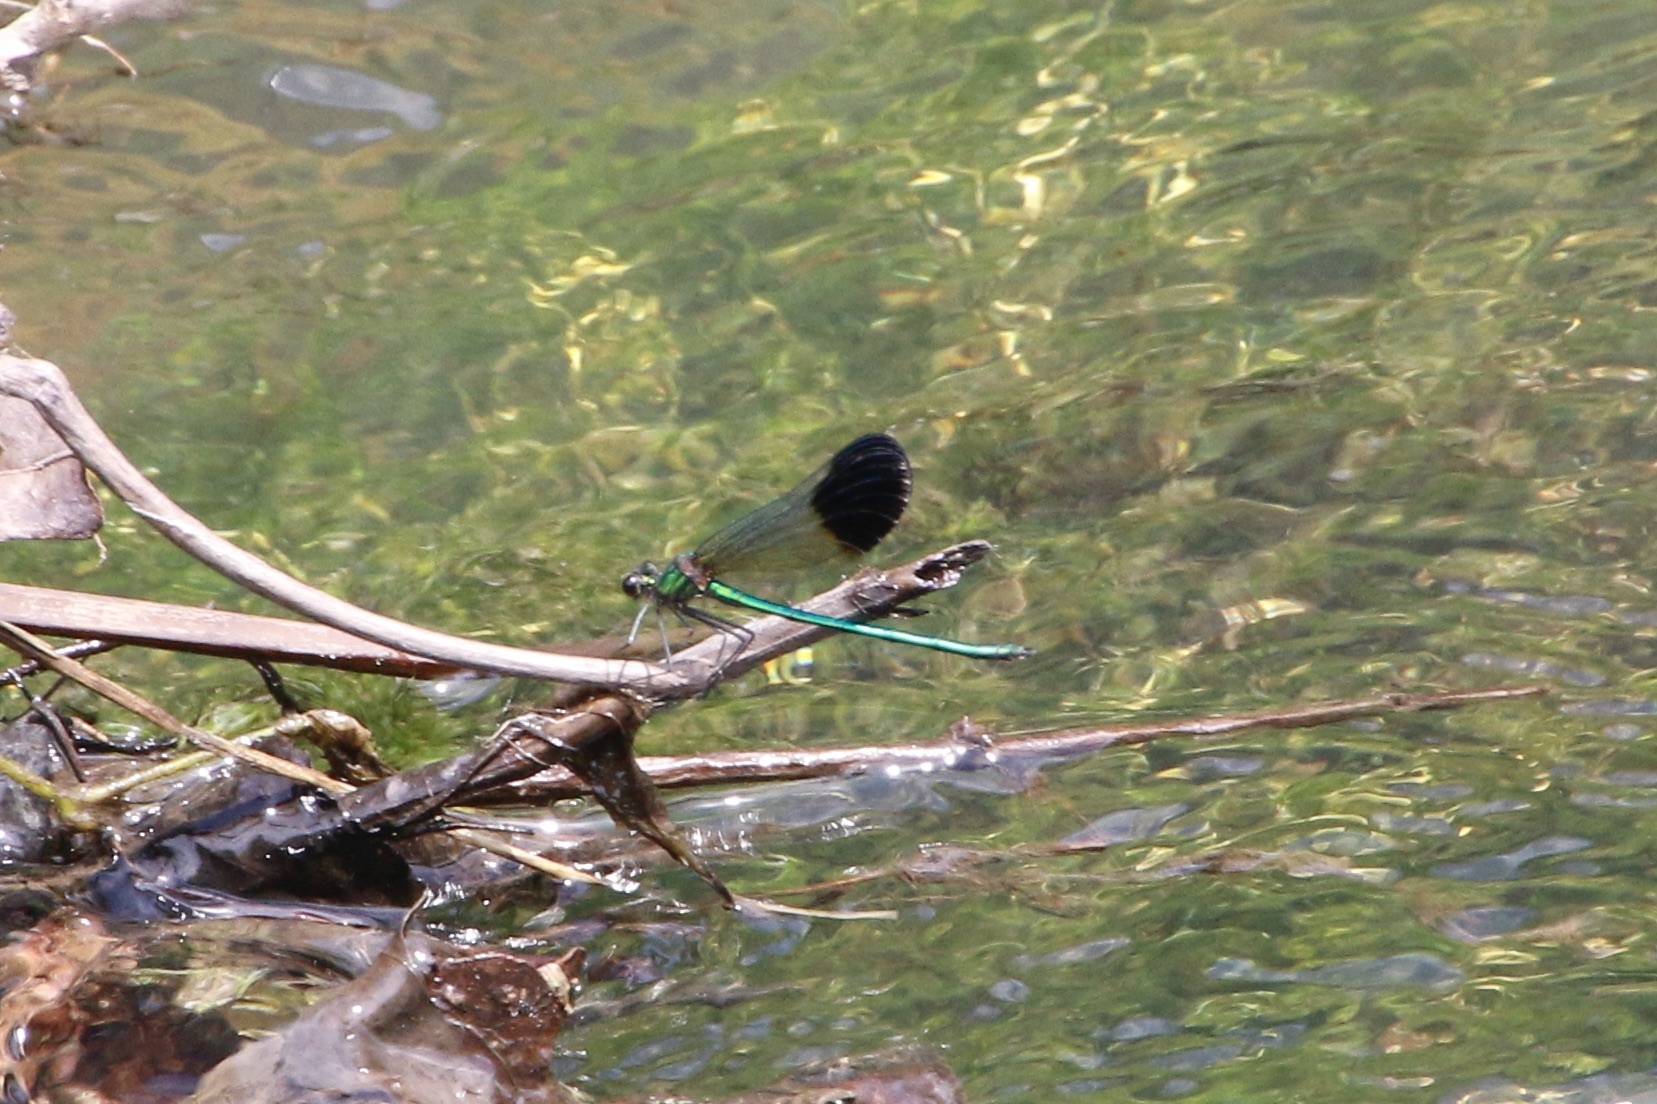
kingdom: Animalia
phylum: Arthropoda
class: Insecta
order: Odonata
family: Calopterygidae
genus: Calopteryx
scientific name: Calopteryx aequabilis
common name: River jewelwing
